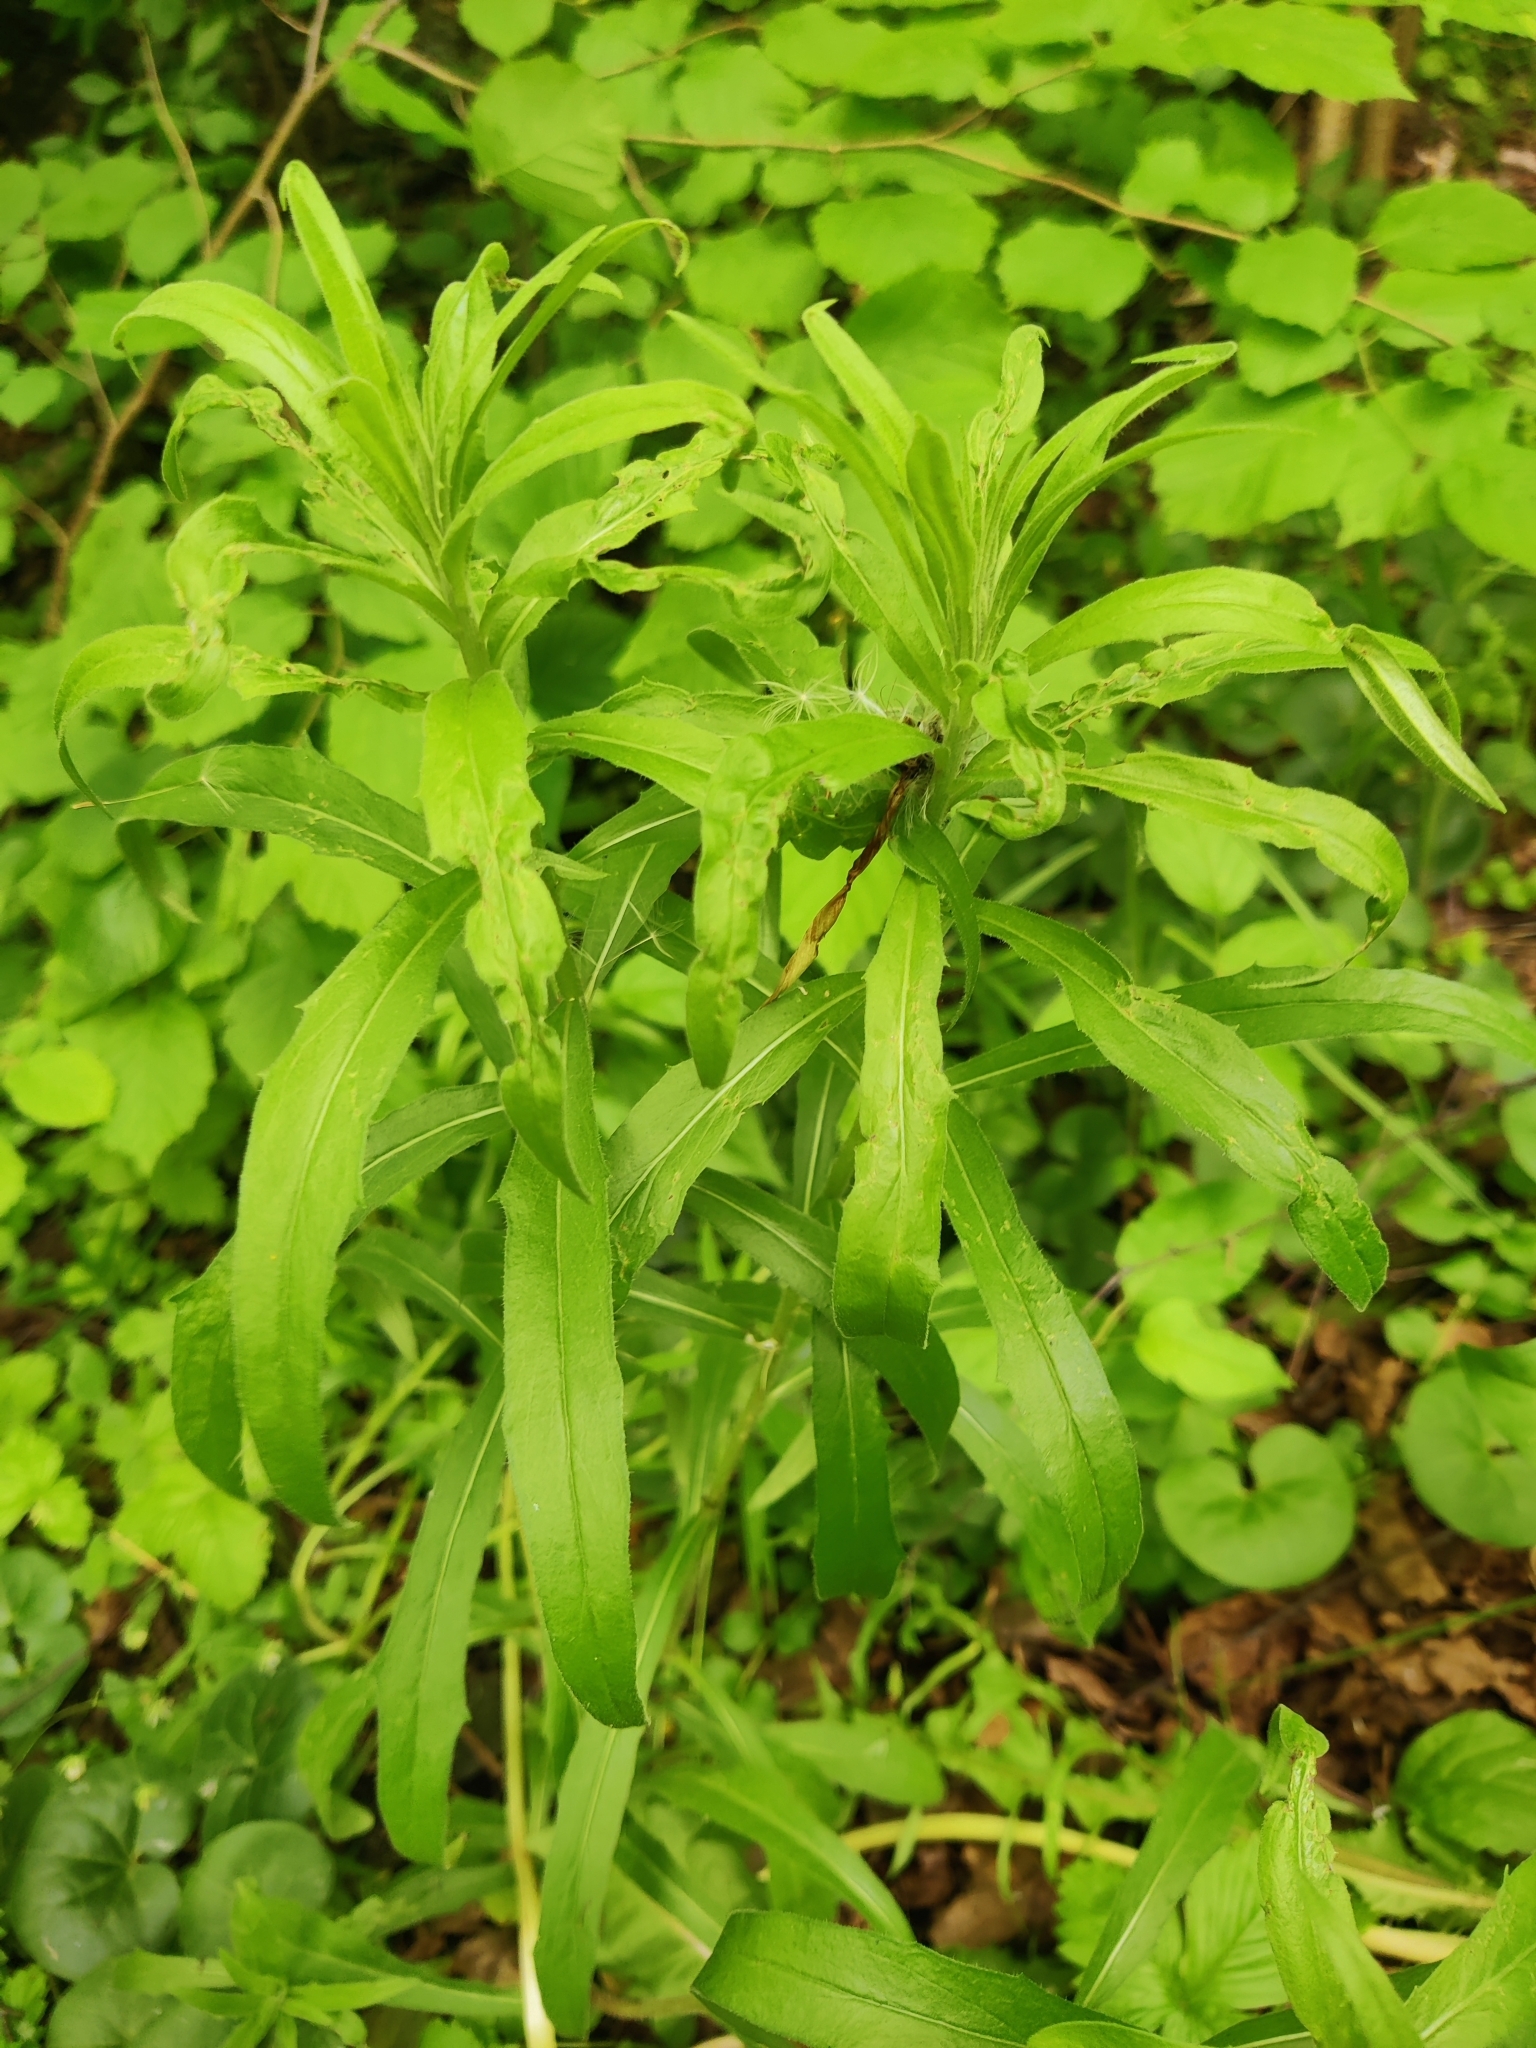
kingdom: Plantae
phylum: Tracheophyta
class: Magnoliopsida
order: Asterales
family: Asteraceae
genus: Hieracium
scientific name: Hieracium umbellatum
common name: Northern hawkweed
